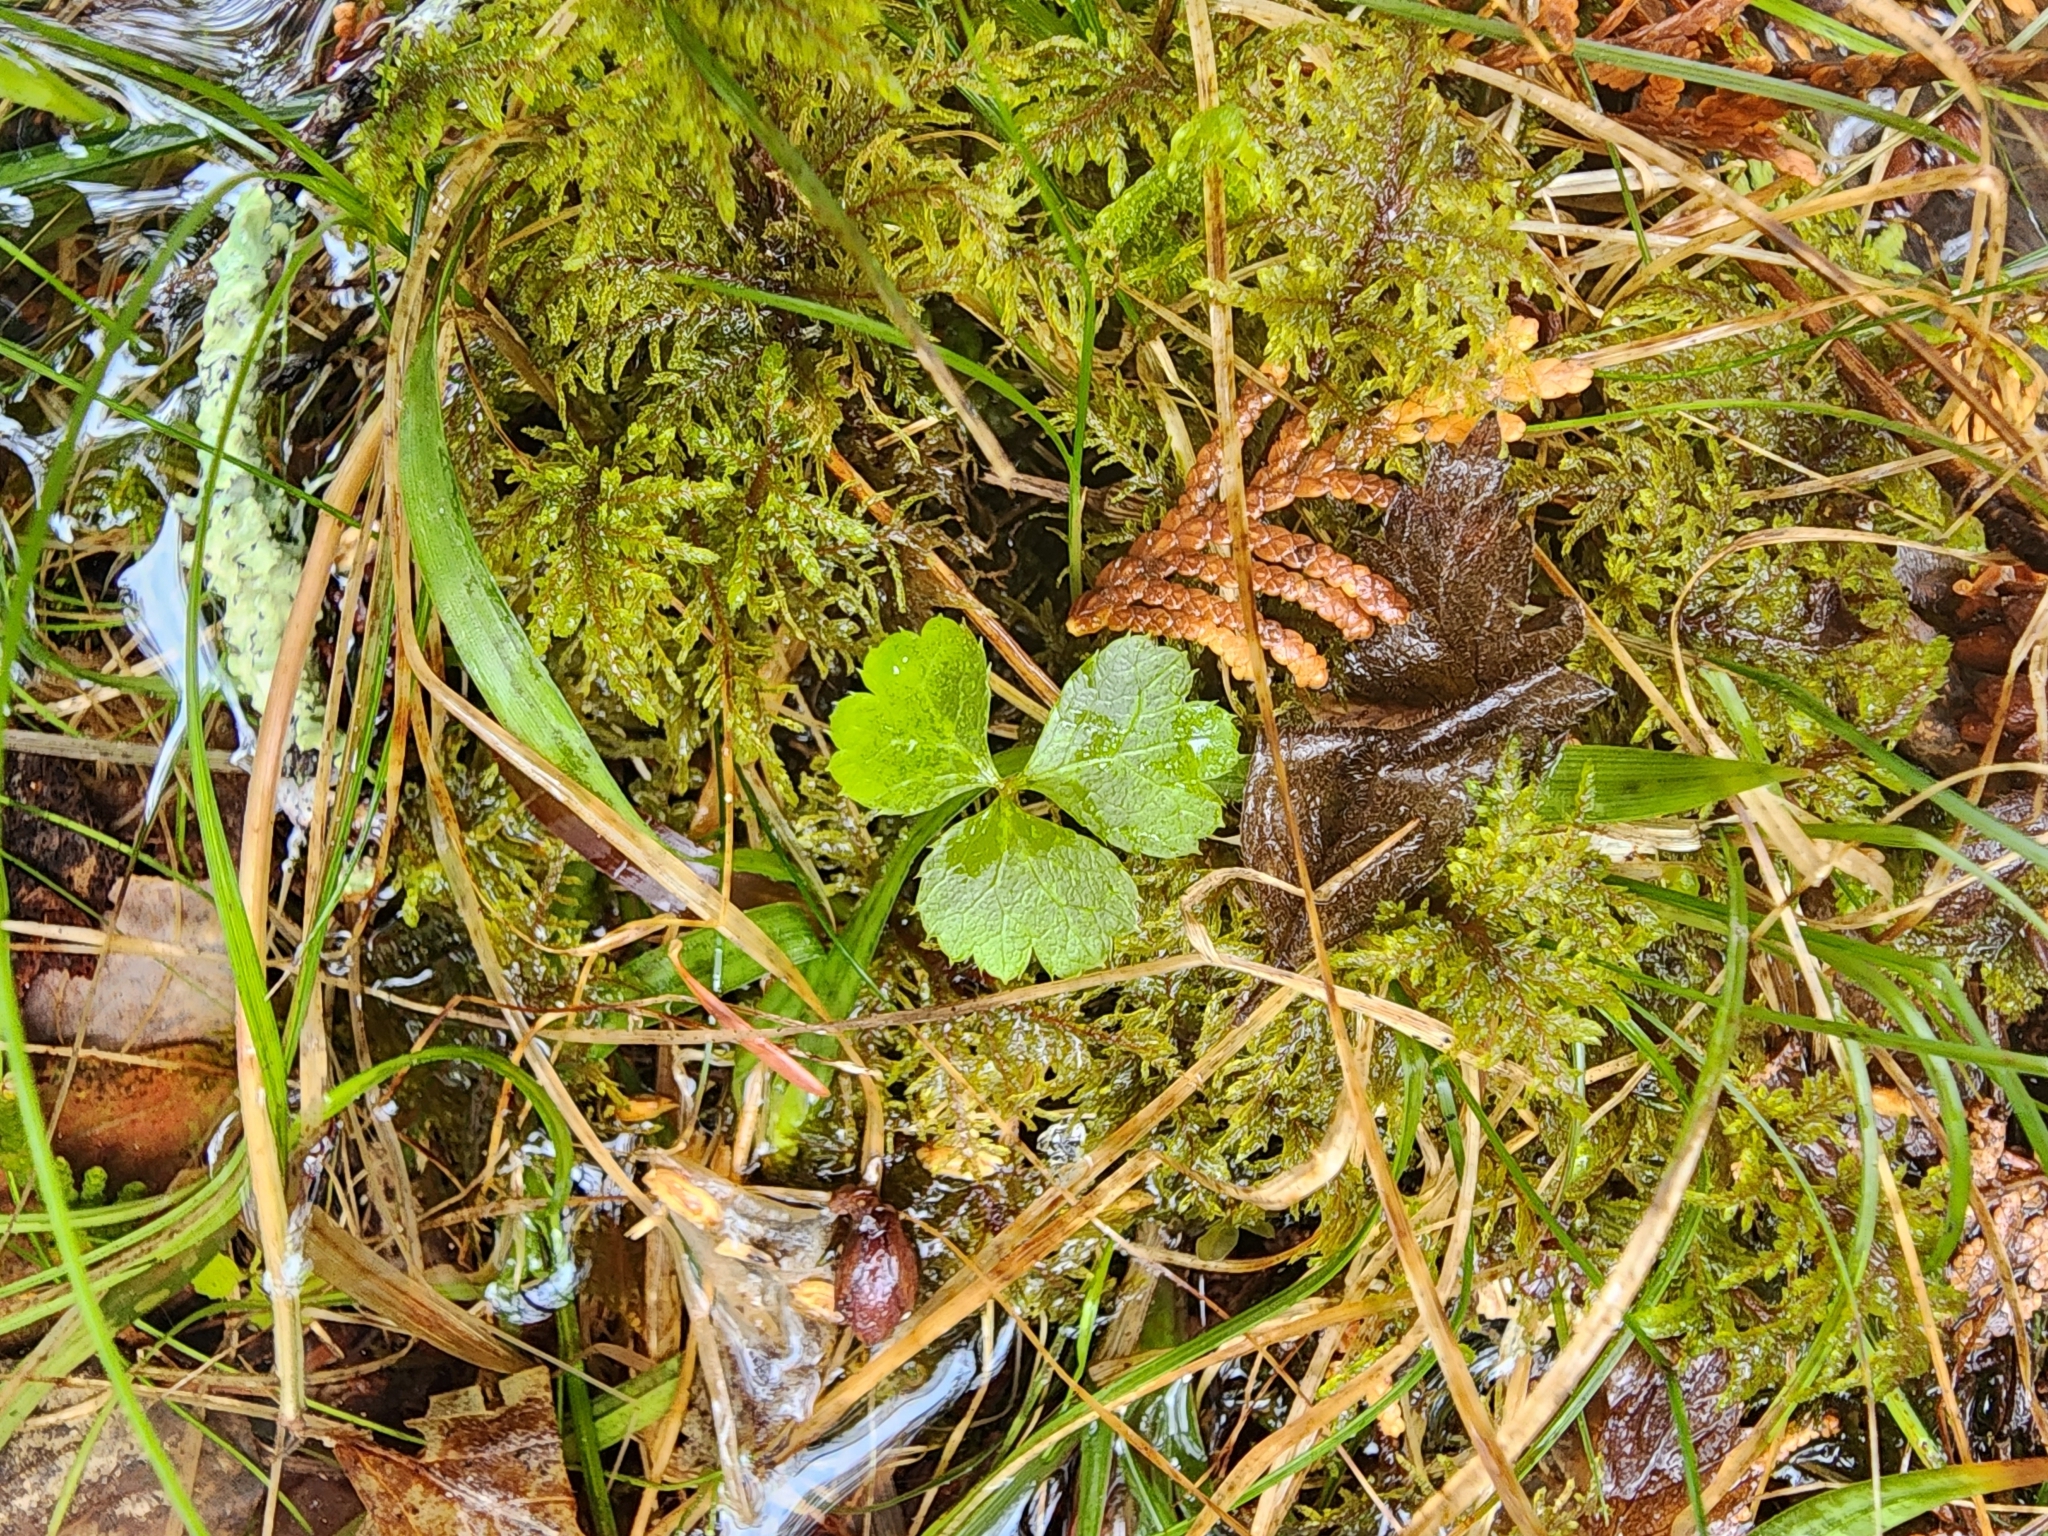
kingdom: Plantae
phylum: Tracheophyta
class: Magnoliopsida
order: Ranunculales
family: Ranunculaceae
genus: Coptis
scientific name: Coptis trifolia
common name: Canker-root
